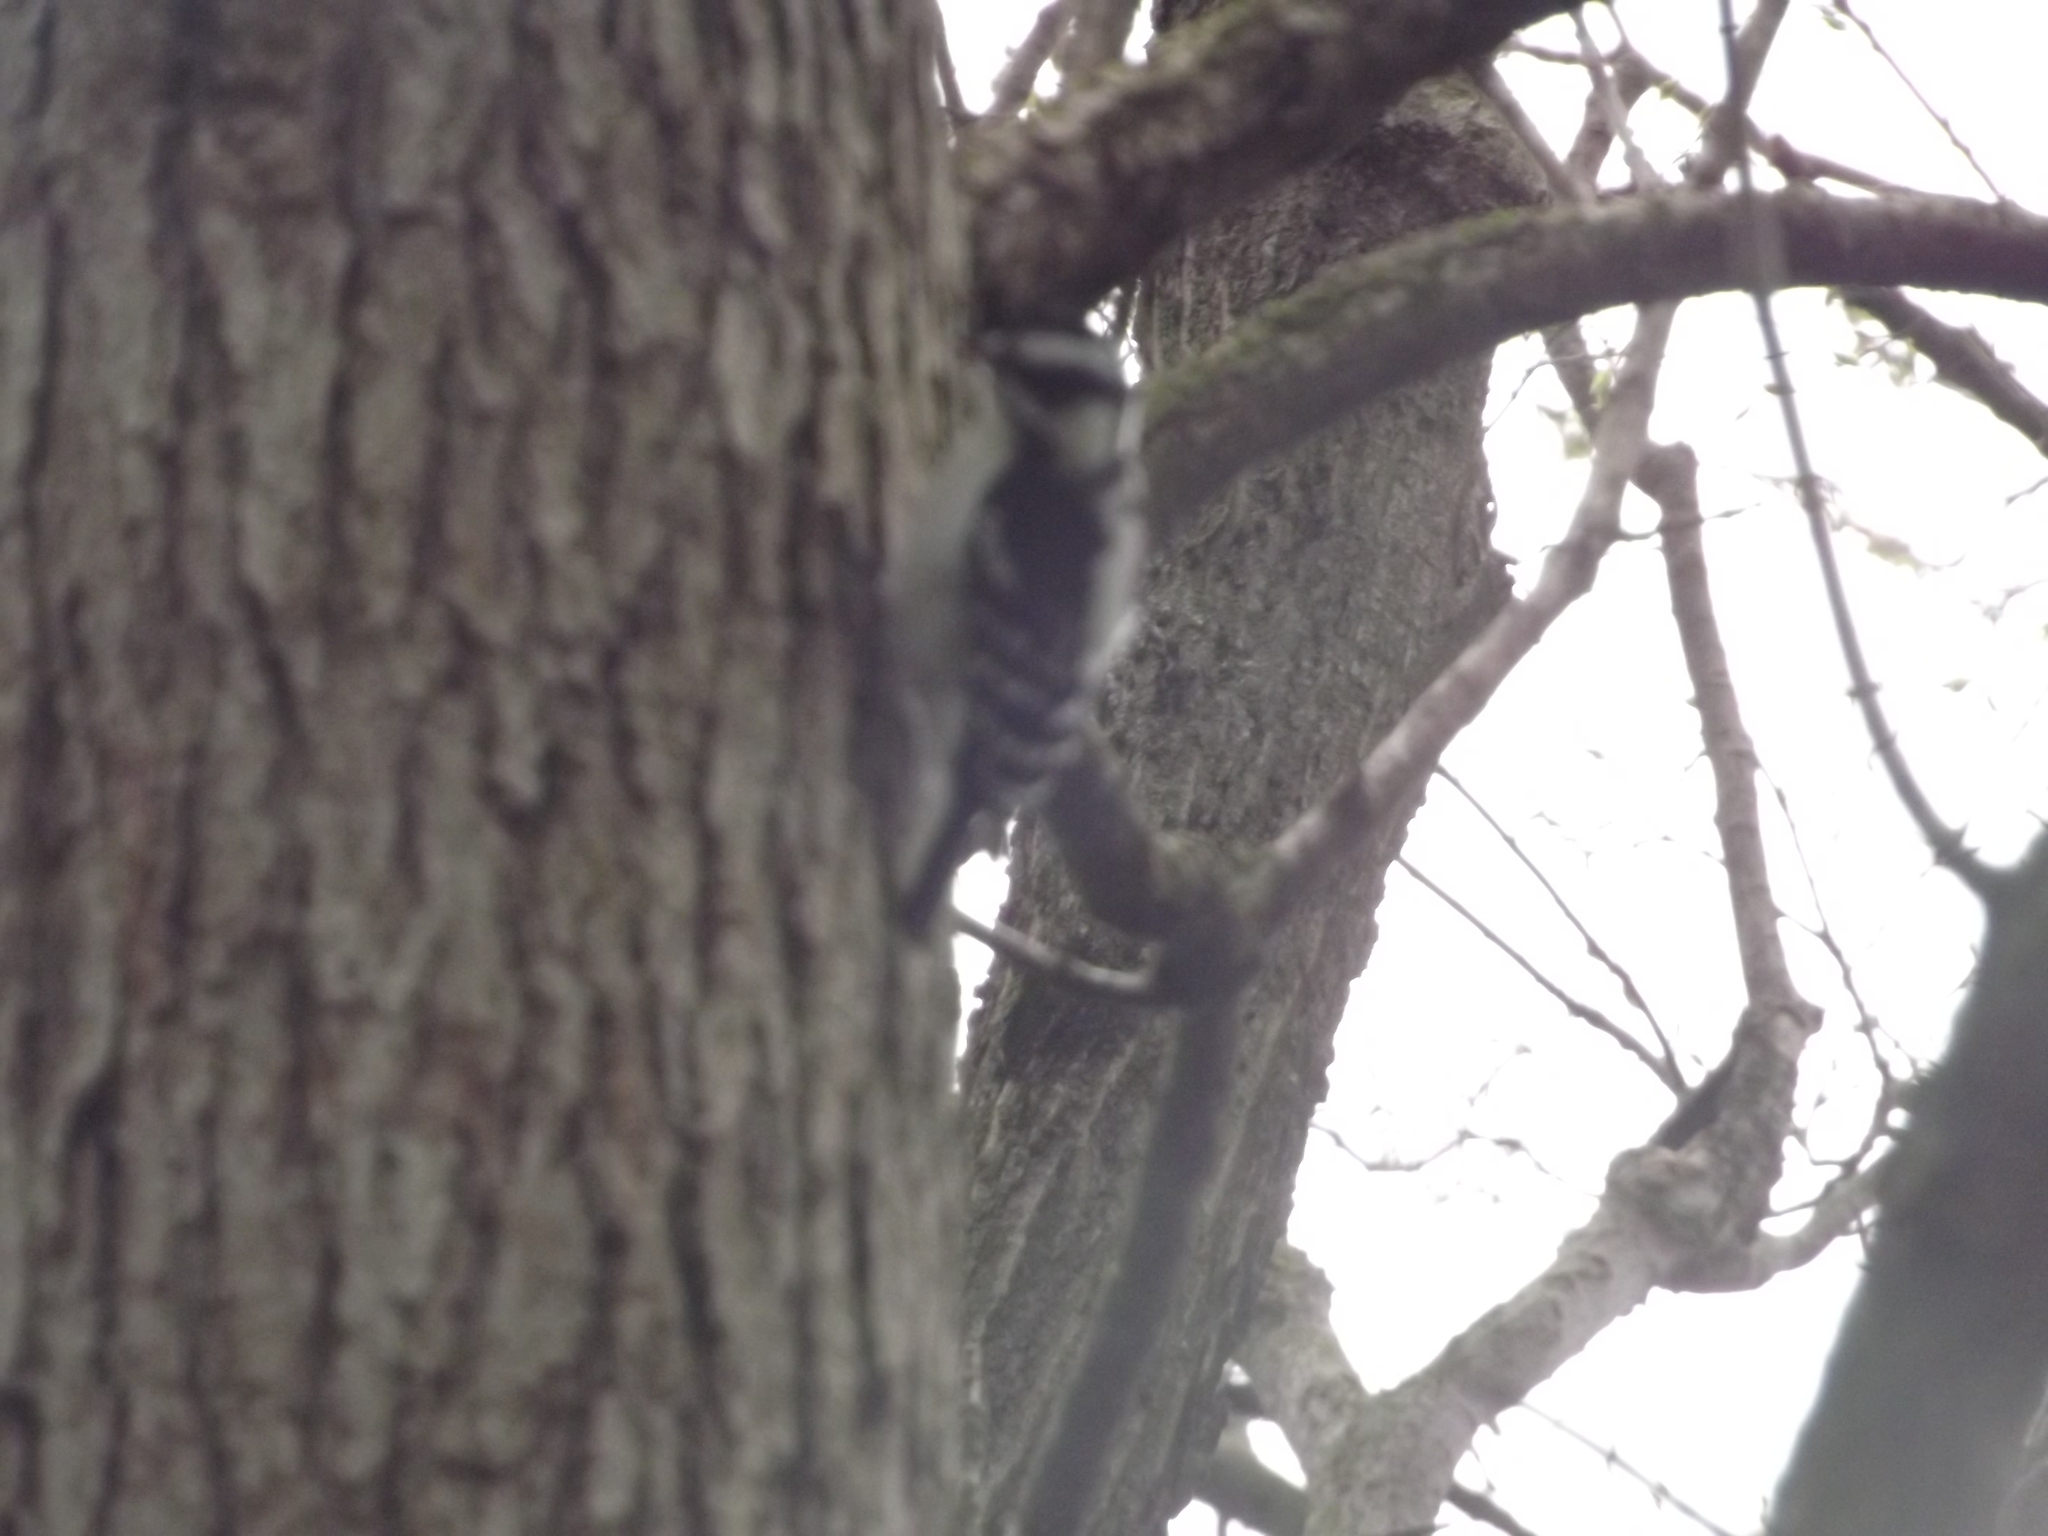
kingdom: Animalia
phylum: Chordata
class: Aves
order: Piciformes
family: Picidae
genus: Dryobates
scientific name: Dryobates pubescens
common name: Downy woodpecker
